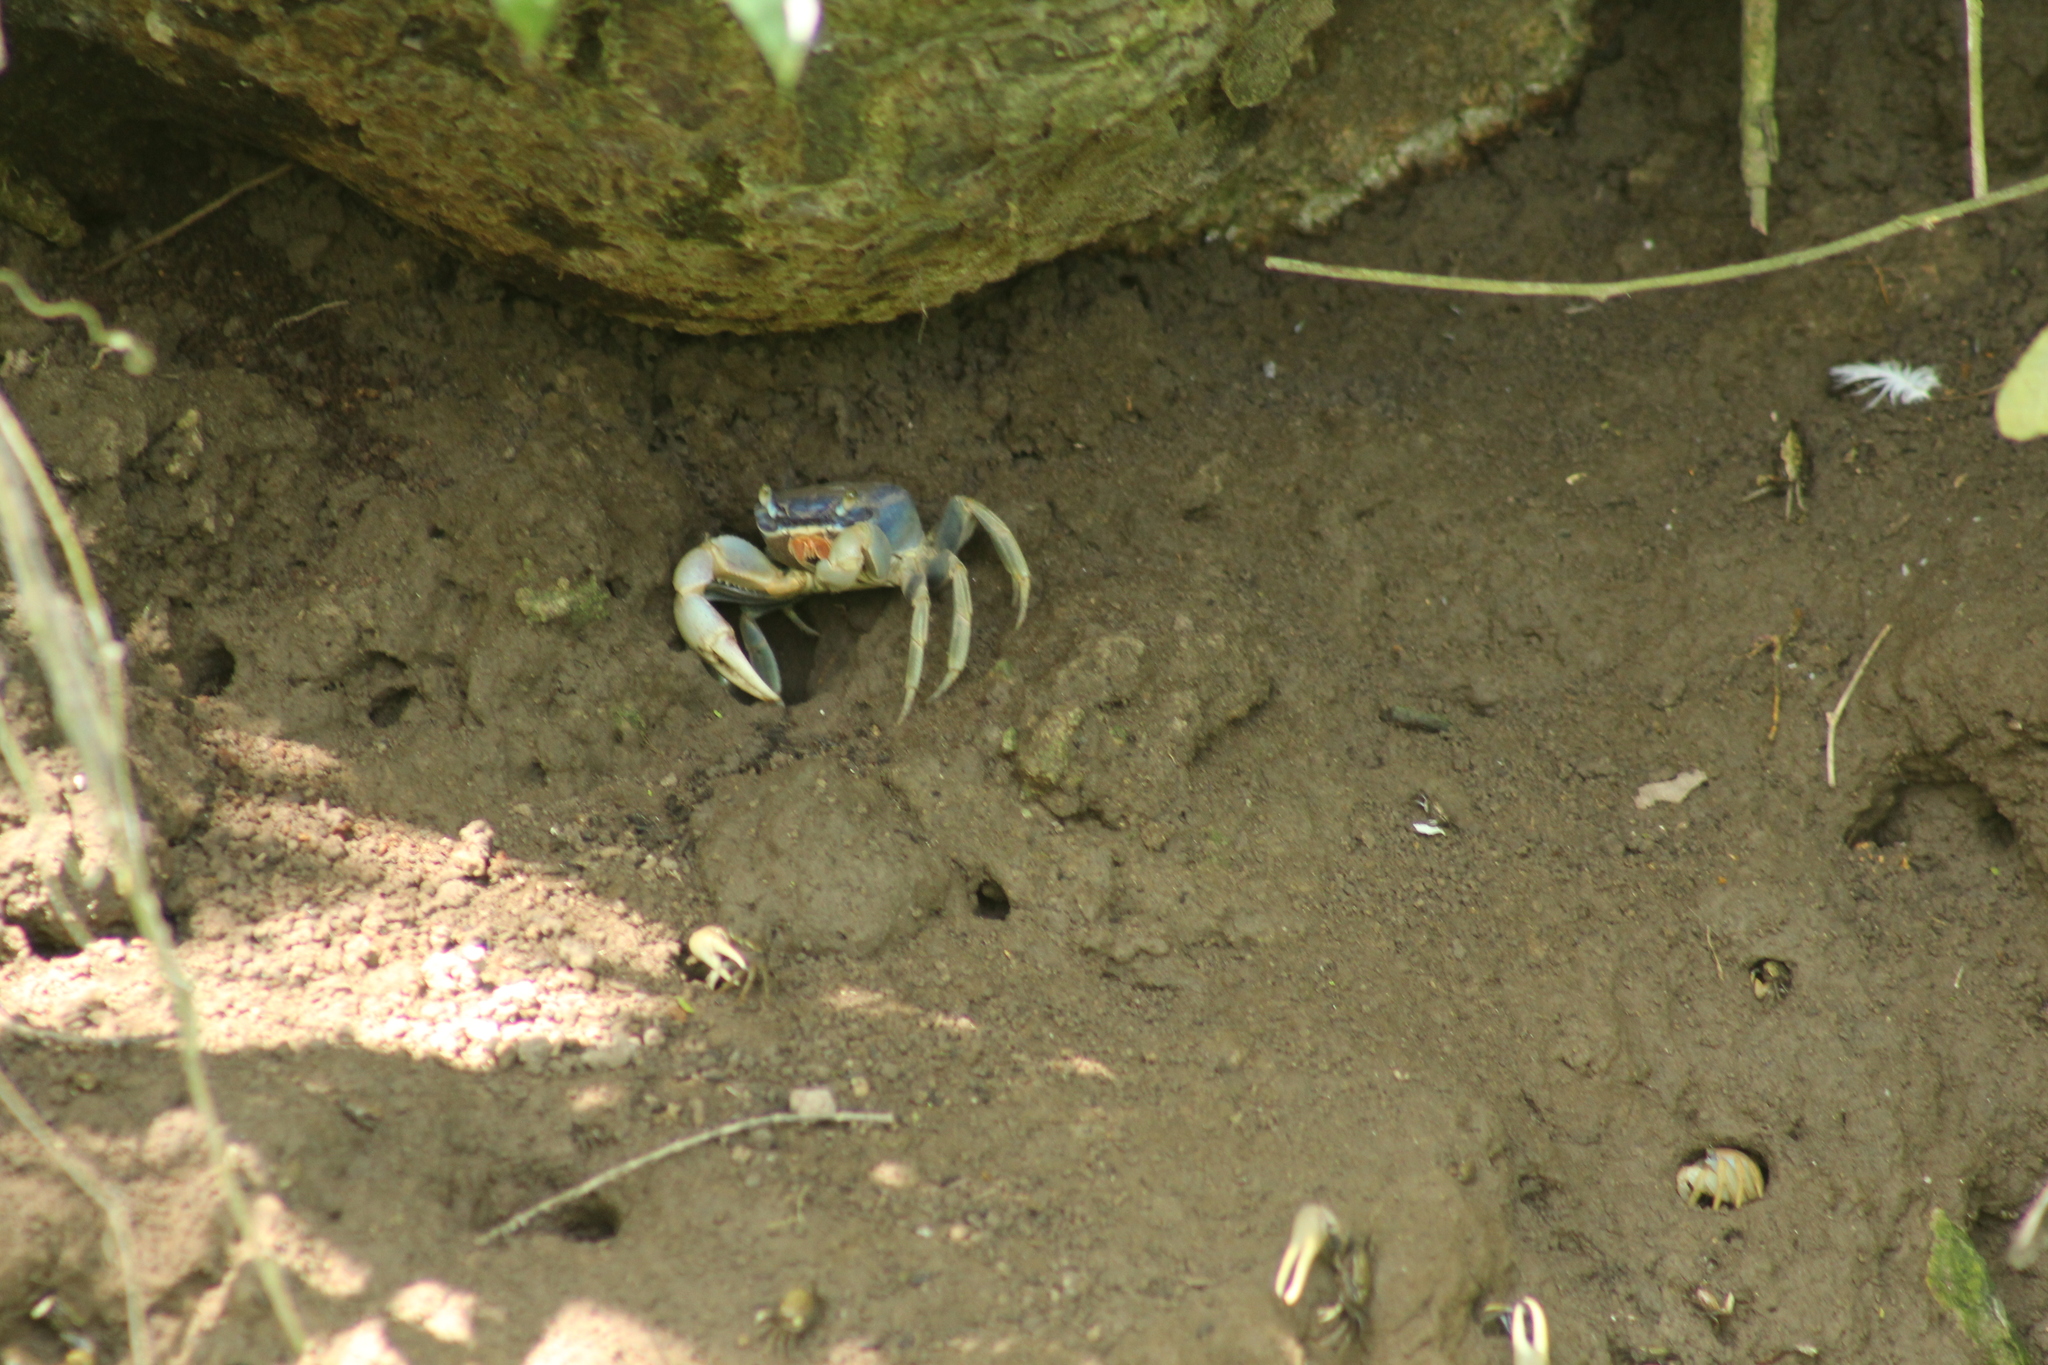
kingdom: Animalia
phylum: Arthropoda
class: Malacostraca
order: Decapoda
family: Gecarcinidae
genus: Cardisoma
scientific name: Cardisoma guanhumi
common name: Great land crab
